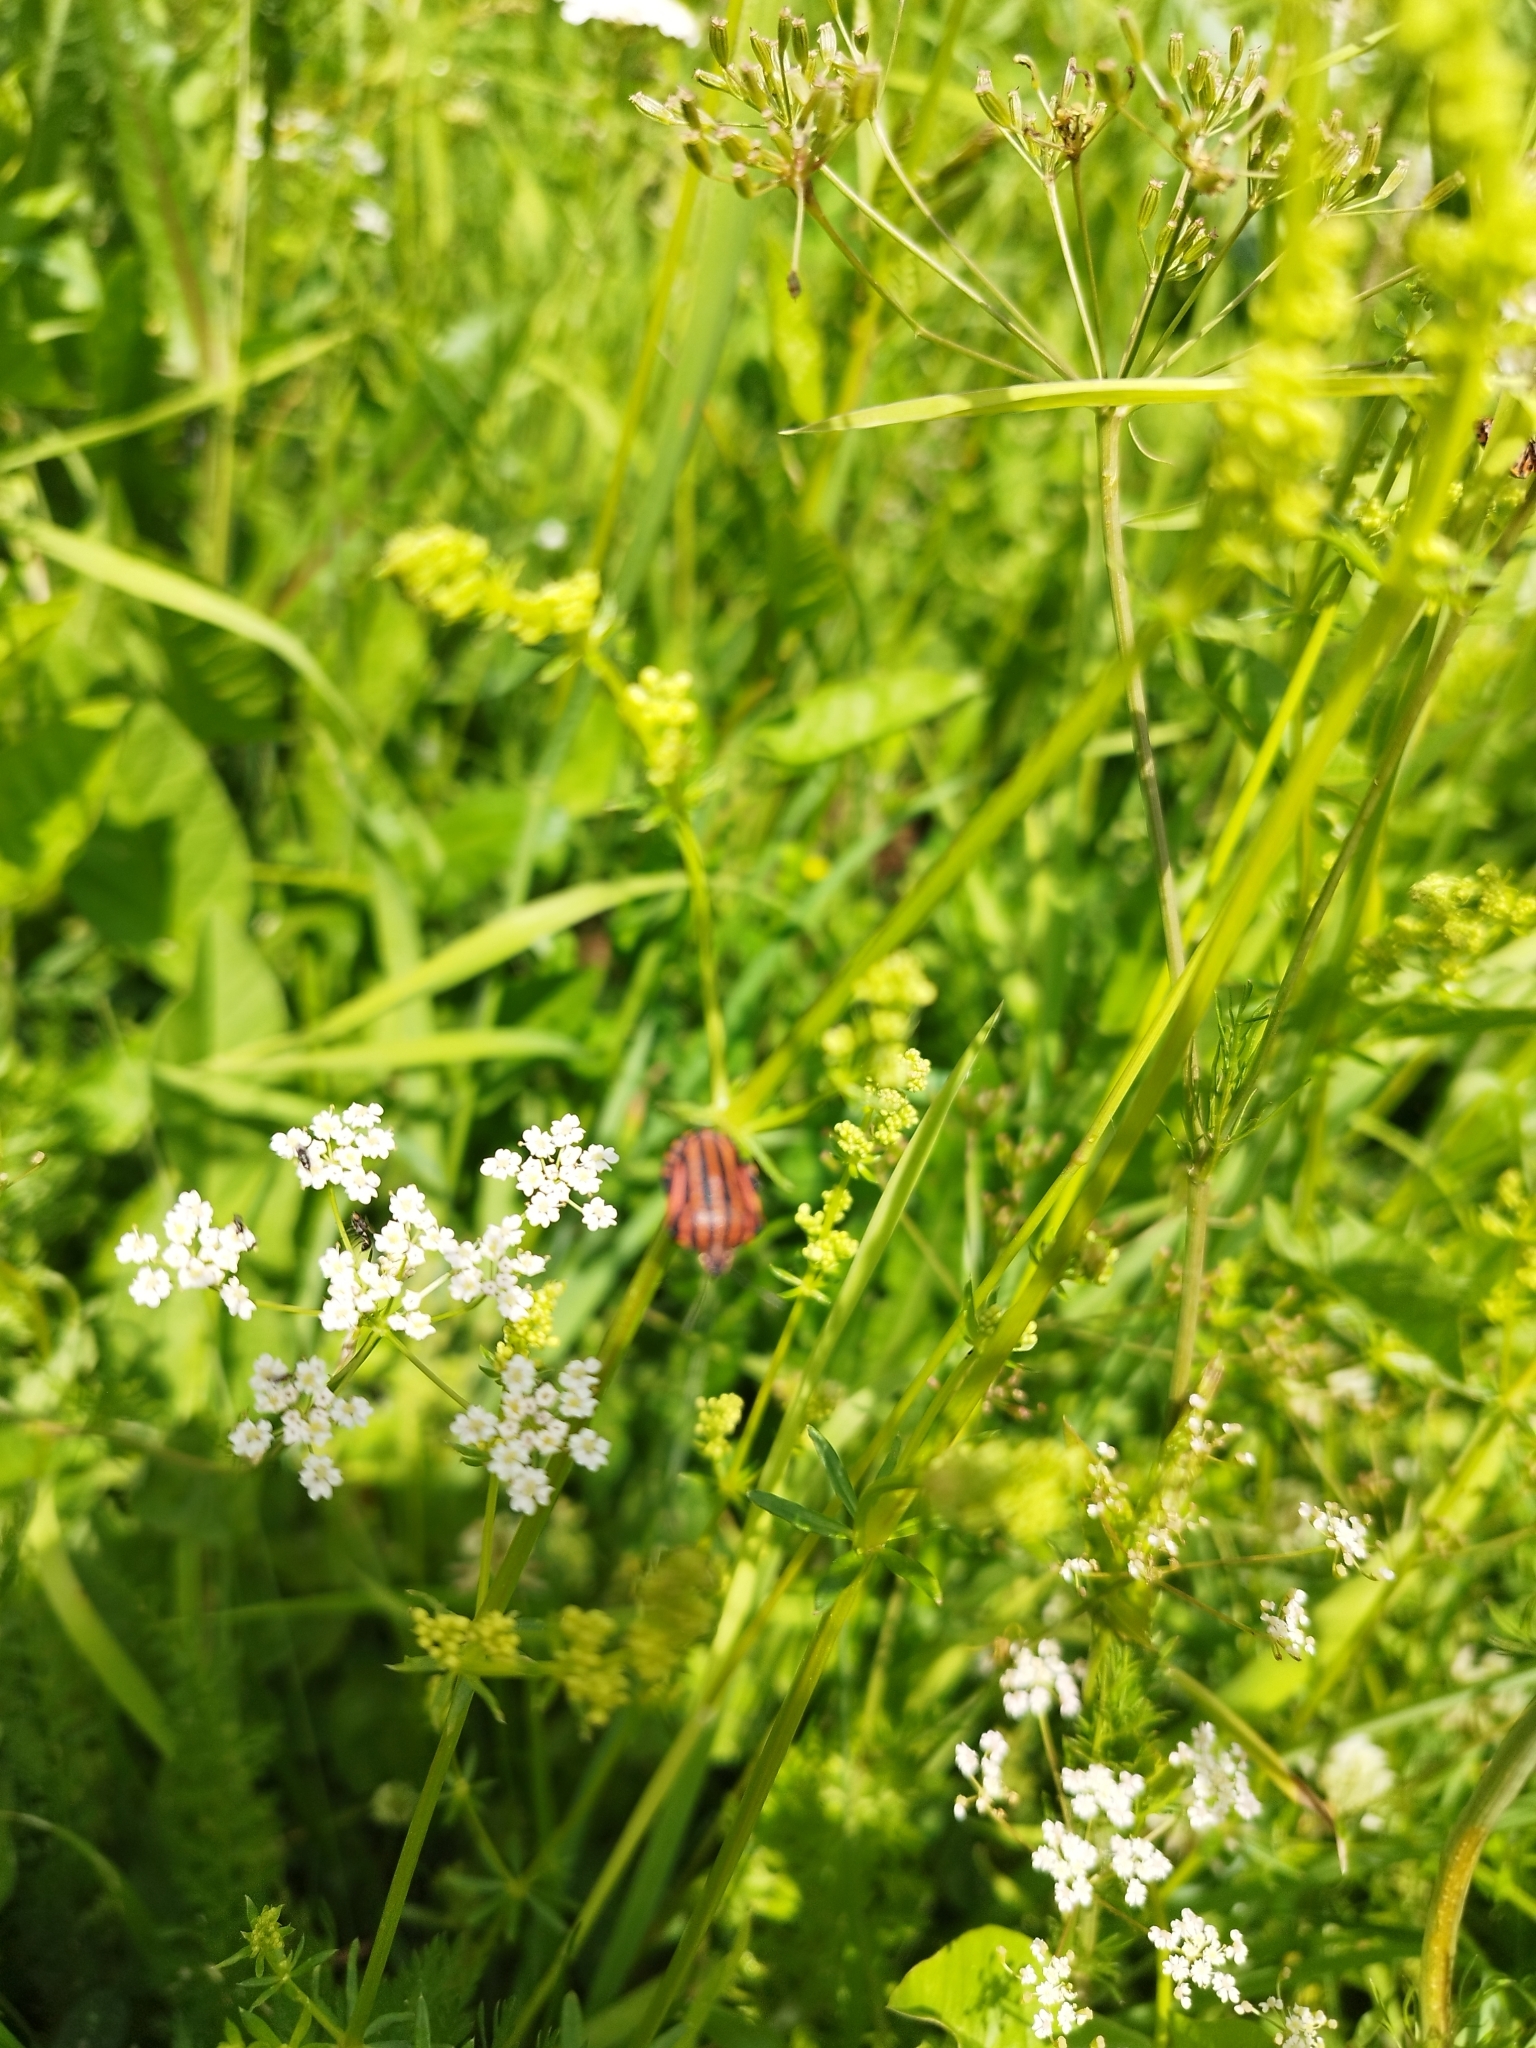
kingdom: Animalia
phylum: Arthropoda
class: Insecta
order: Hemiptera
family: Pentatomidae
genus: Graphosoma
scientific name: Graphosoma italicum
